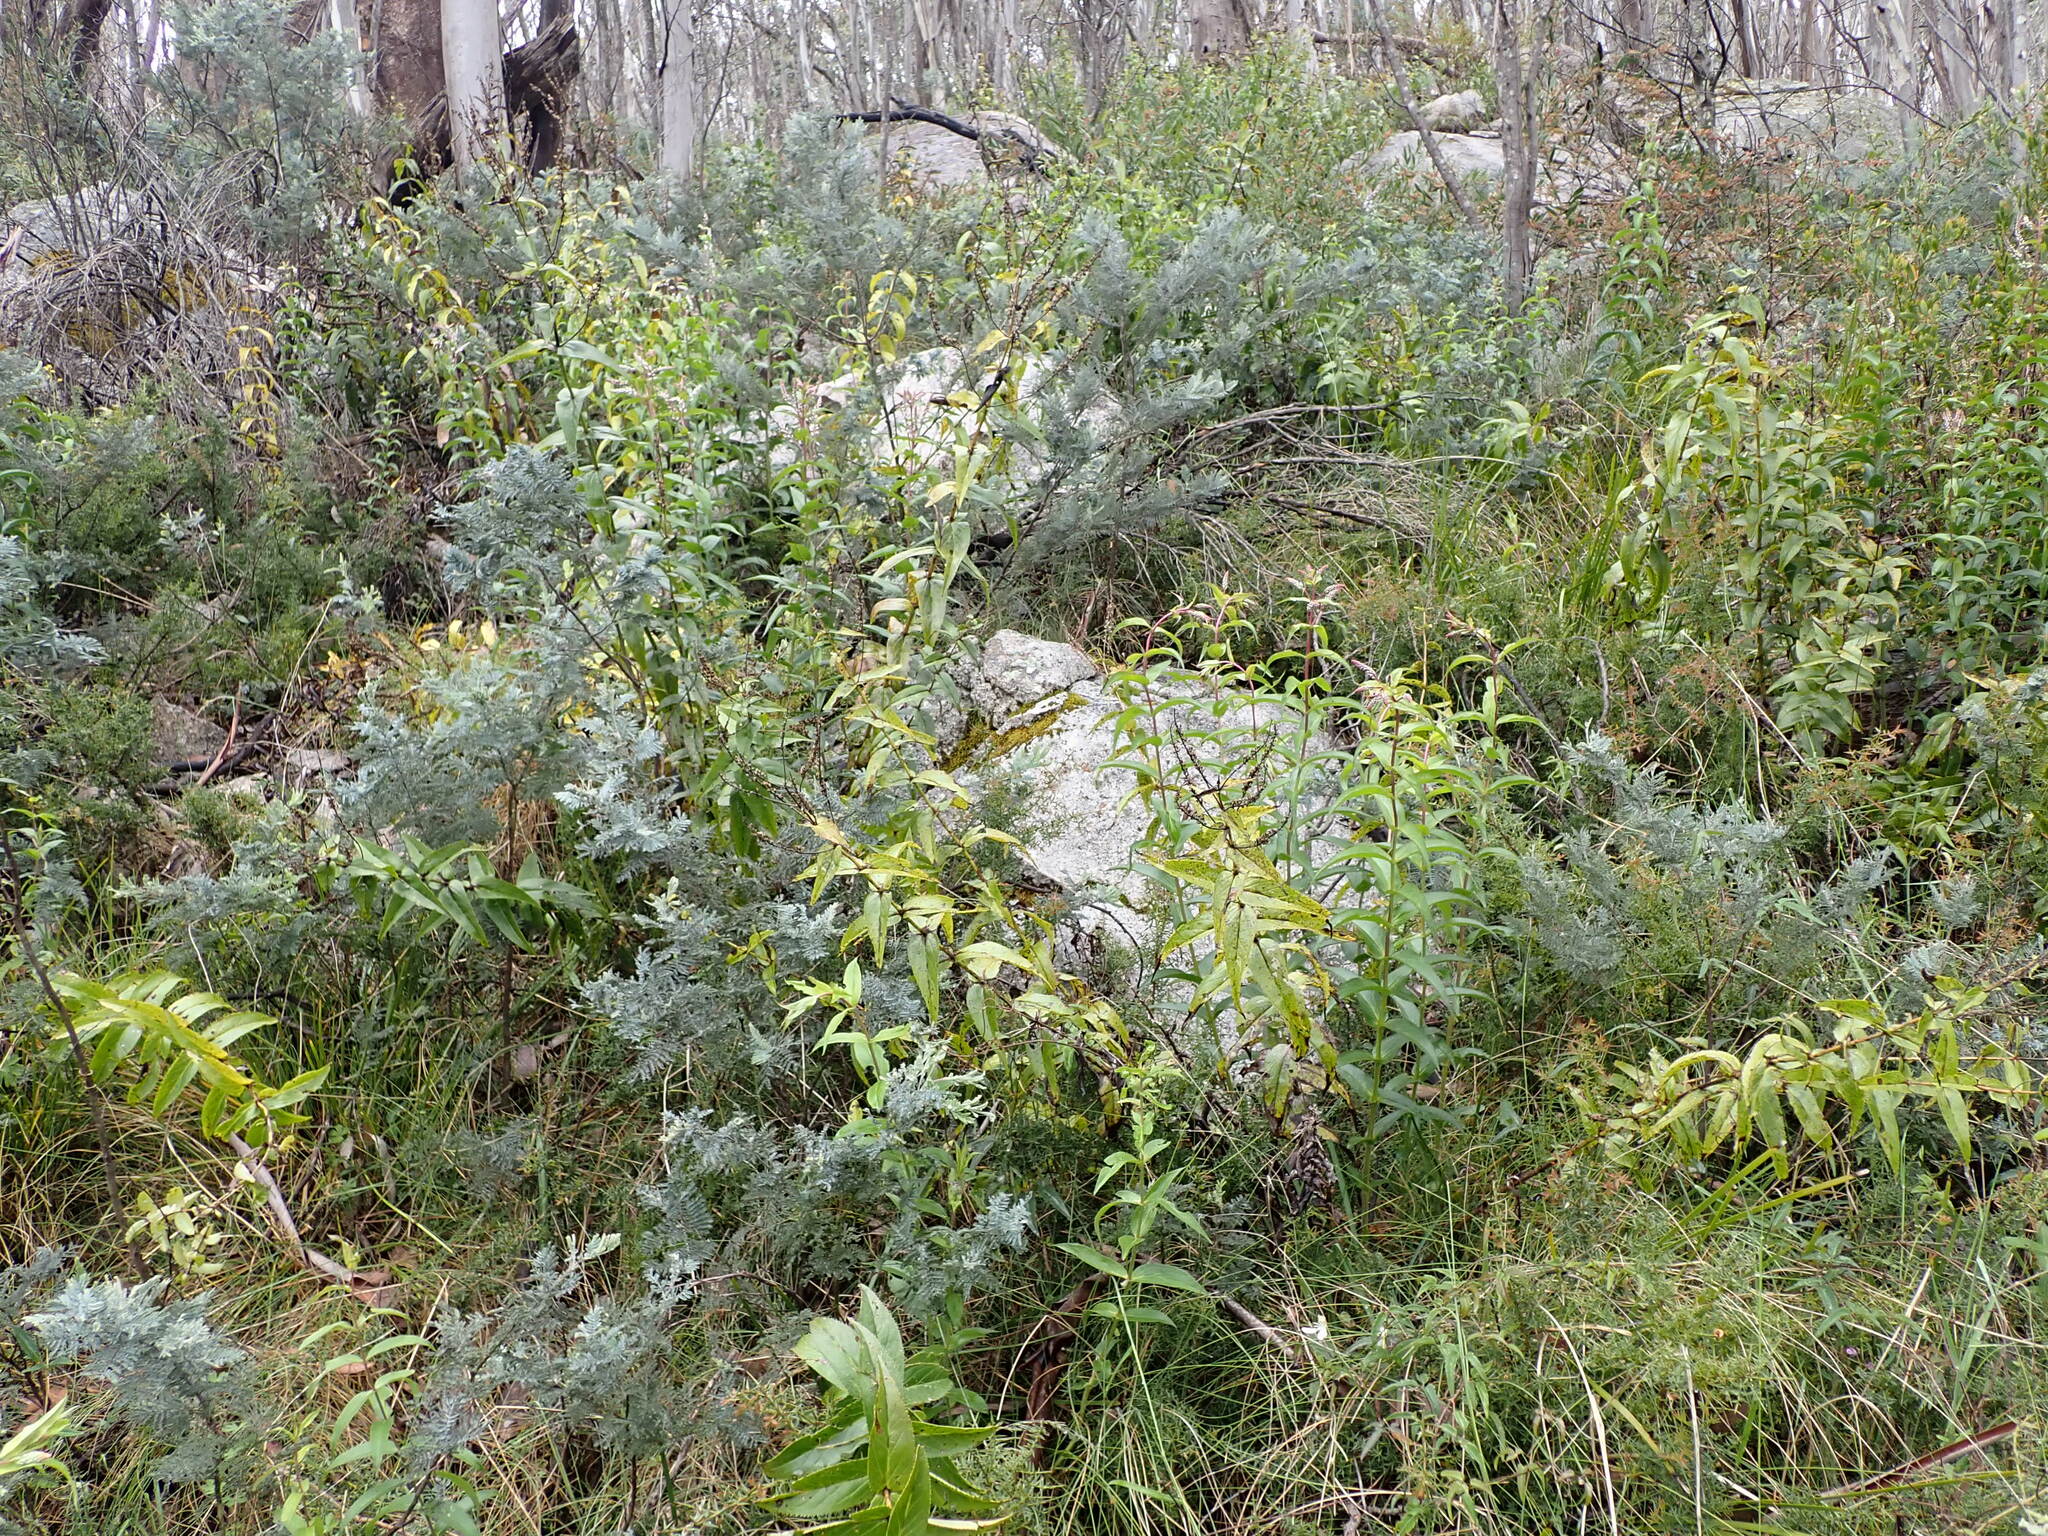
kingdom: Plantae
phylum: Tracheophyta
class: Magnoliopsida
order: Lamiales
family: Plantaginaceae
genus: Veronica
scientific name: Veronica derwentiana
